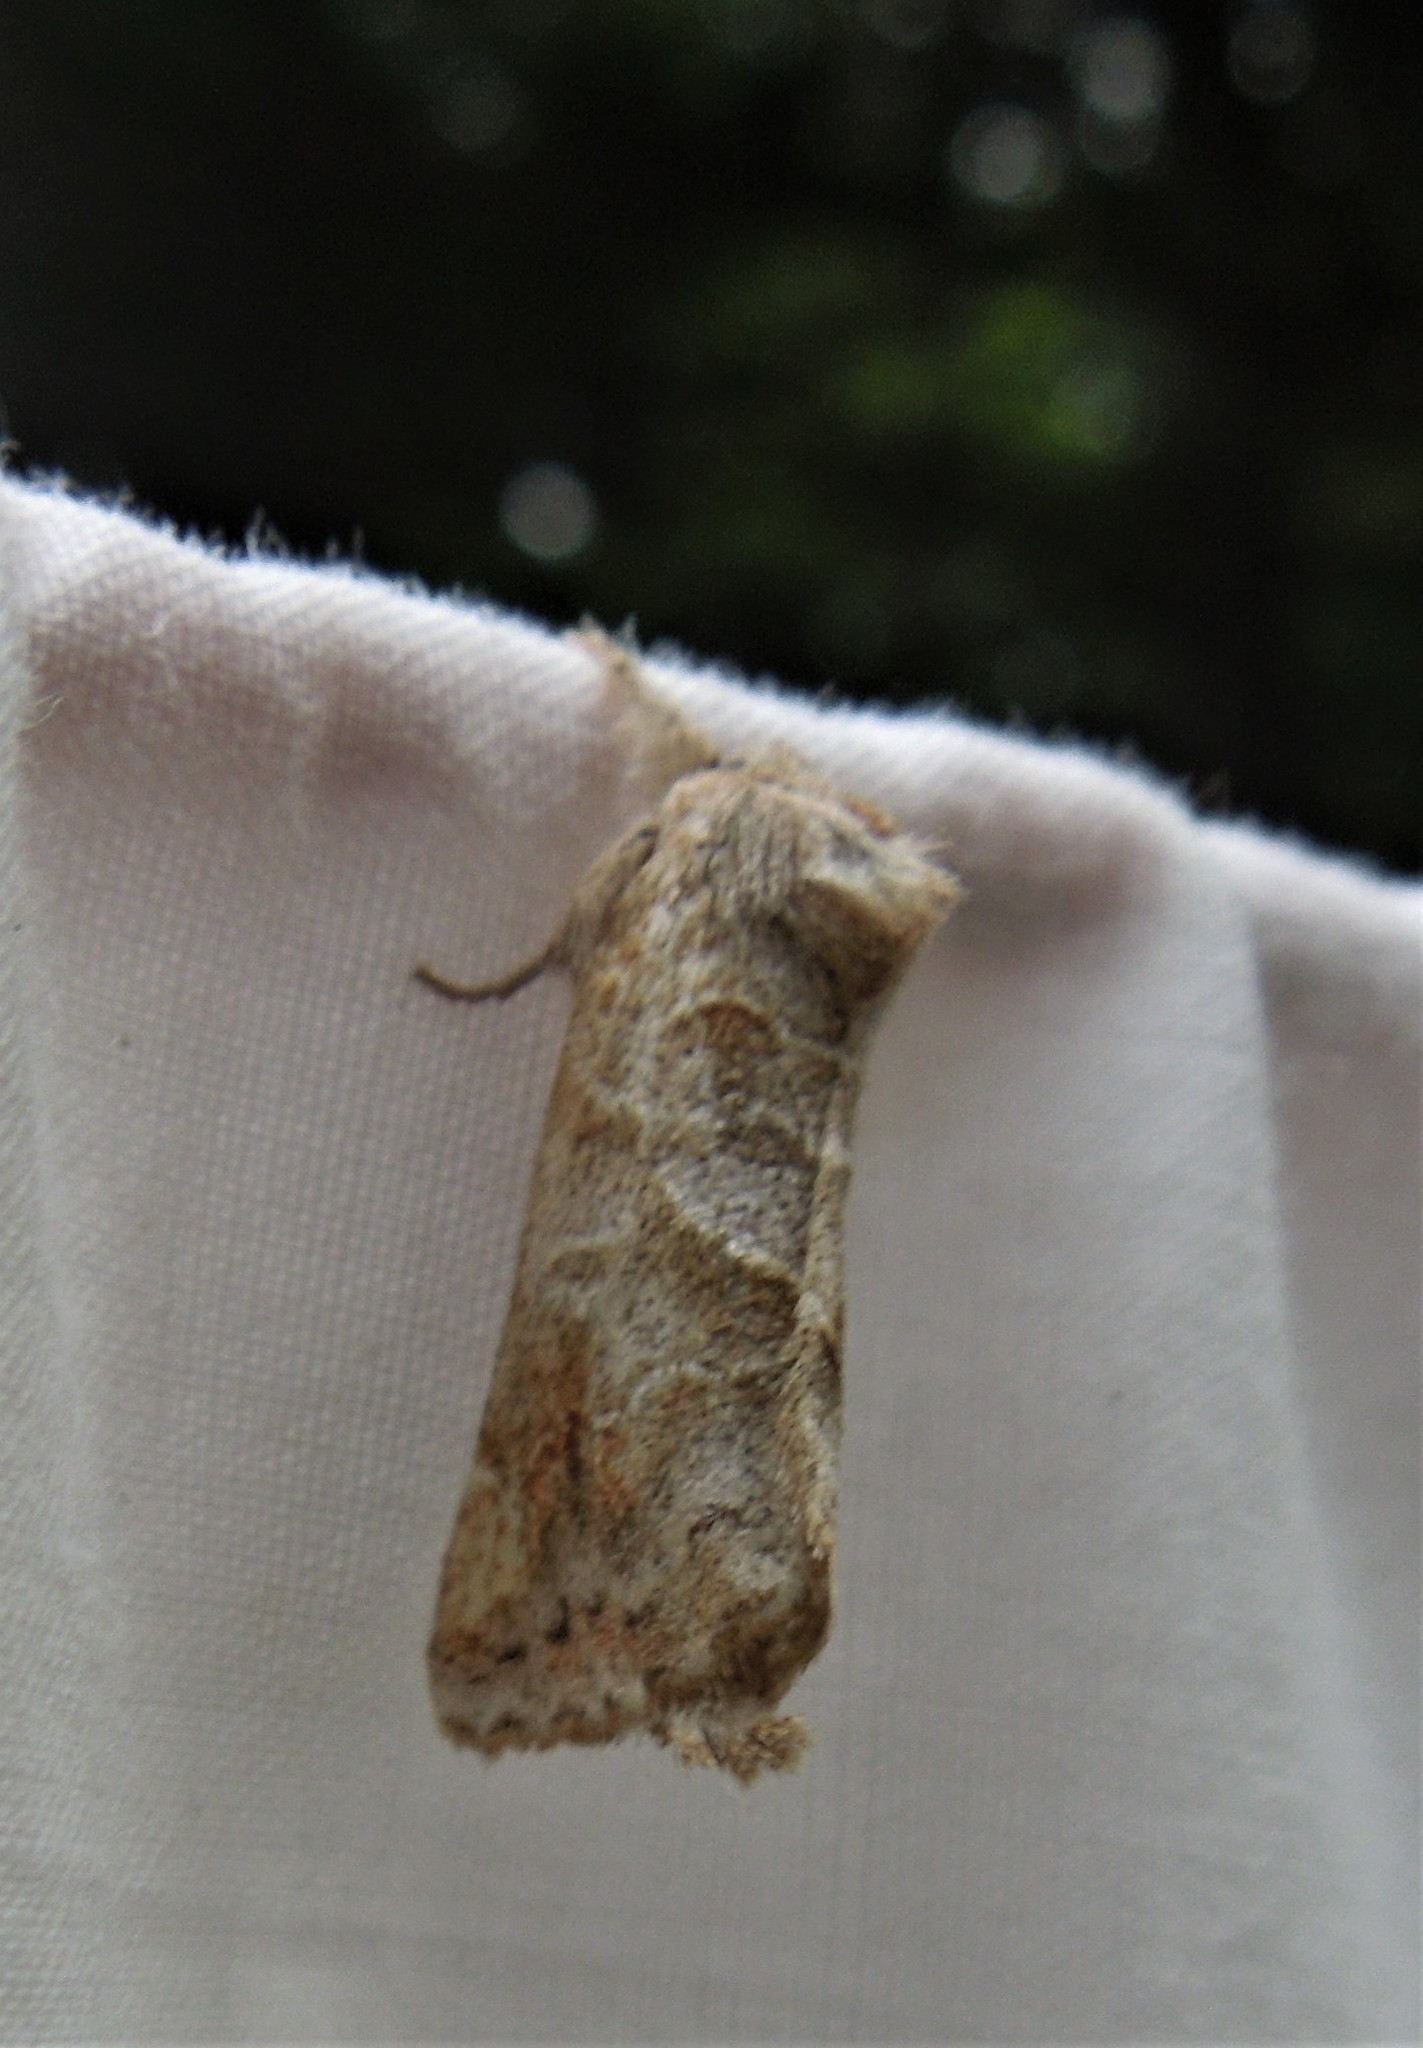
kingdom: Animalia
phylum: Arthropoda
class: Insecta
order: Lepidoptera
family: Notodontidae
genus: Clostera
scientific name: Clostera strigosa
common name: Striped chocolate-tip moth
